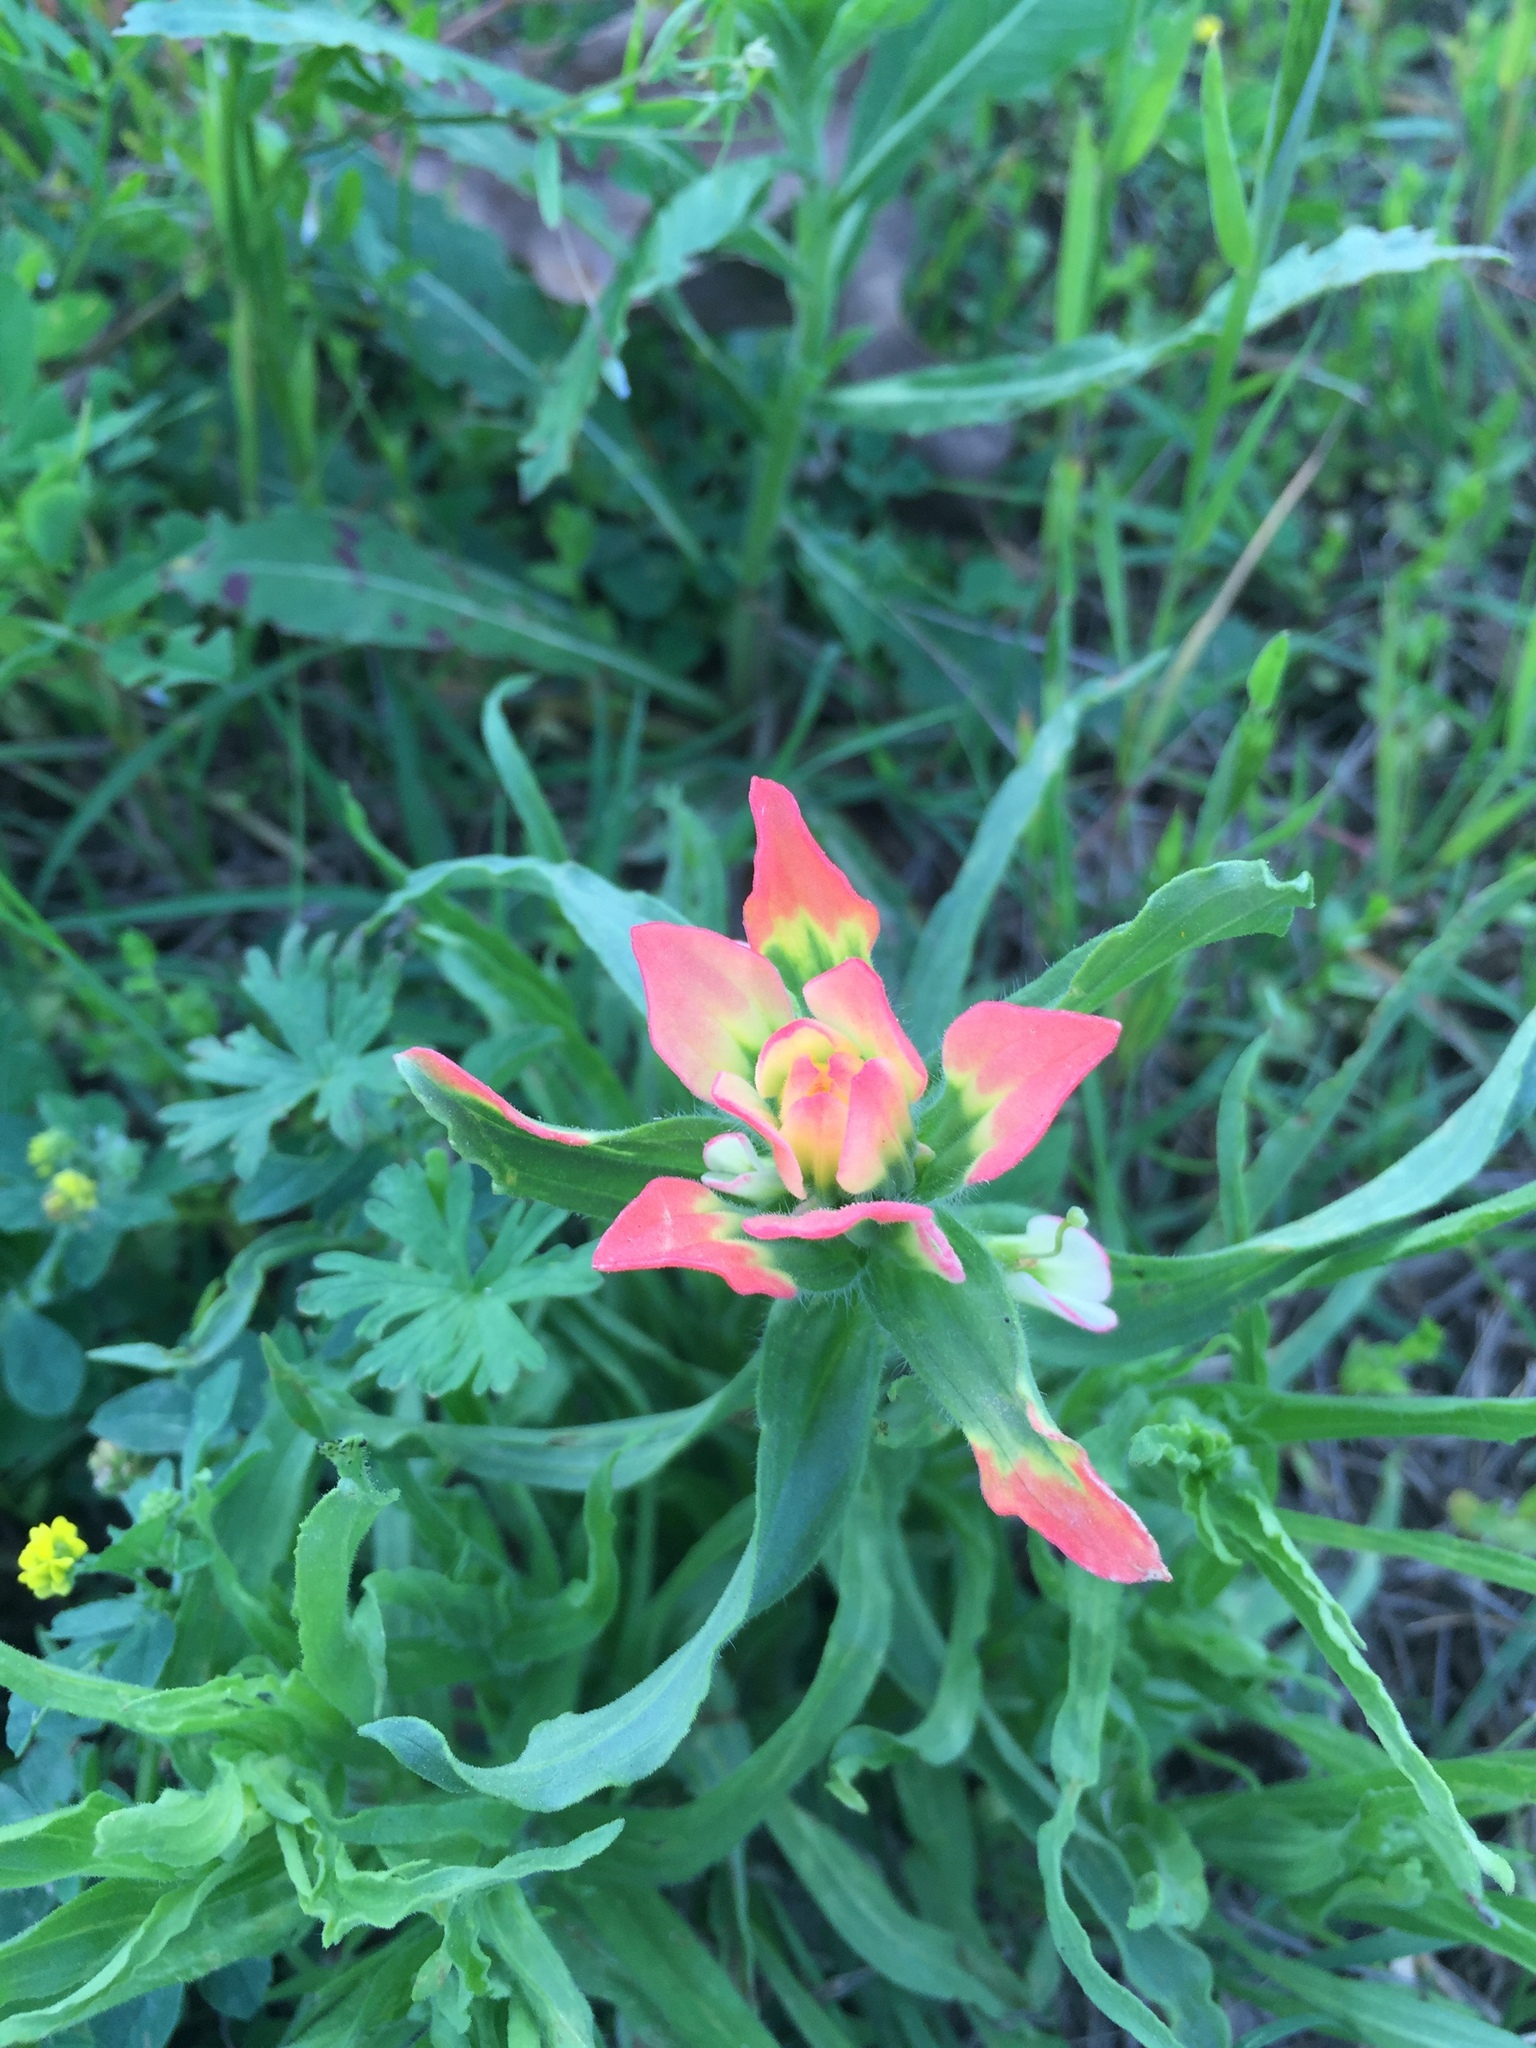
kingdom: Plantae
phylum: Tracheophyta
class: Magnoliopsida
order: Lamiales
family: Orobanchaceae
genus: Castilleja
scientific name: Castilleja indivisa
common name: Texas paintbrush
